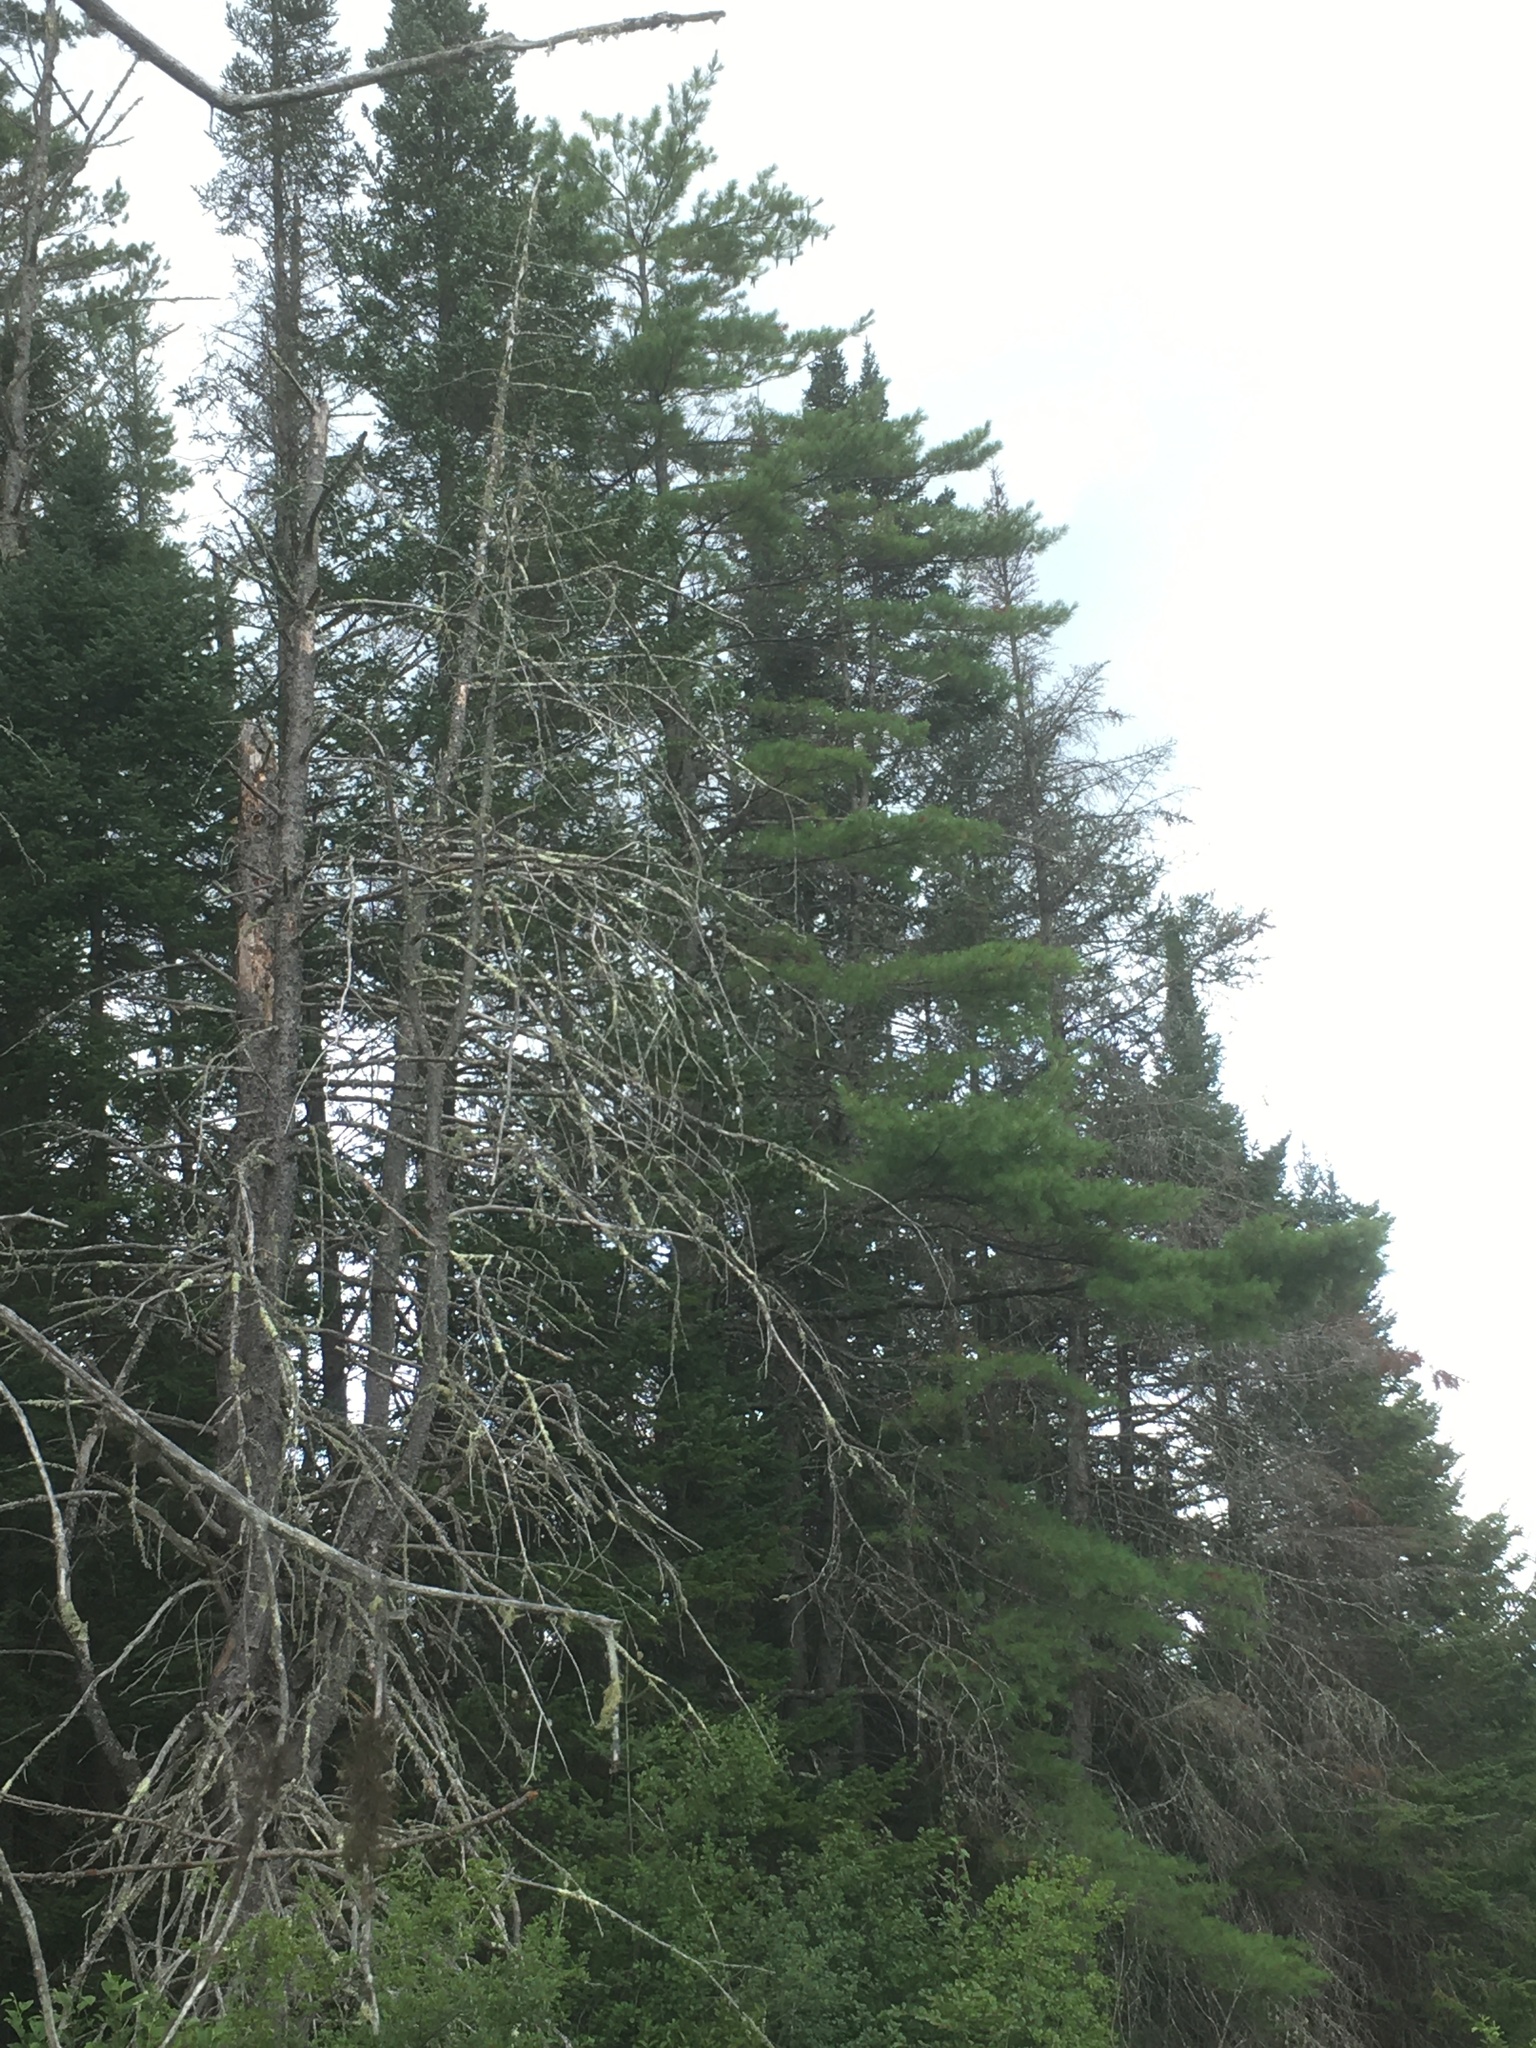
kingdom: Plantae
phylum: Tracheophyta
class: Pinopsida
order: Pinales
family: Pinaceae
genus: Pinus
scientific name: Pinus strobus
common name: Weymouth pine
